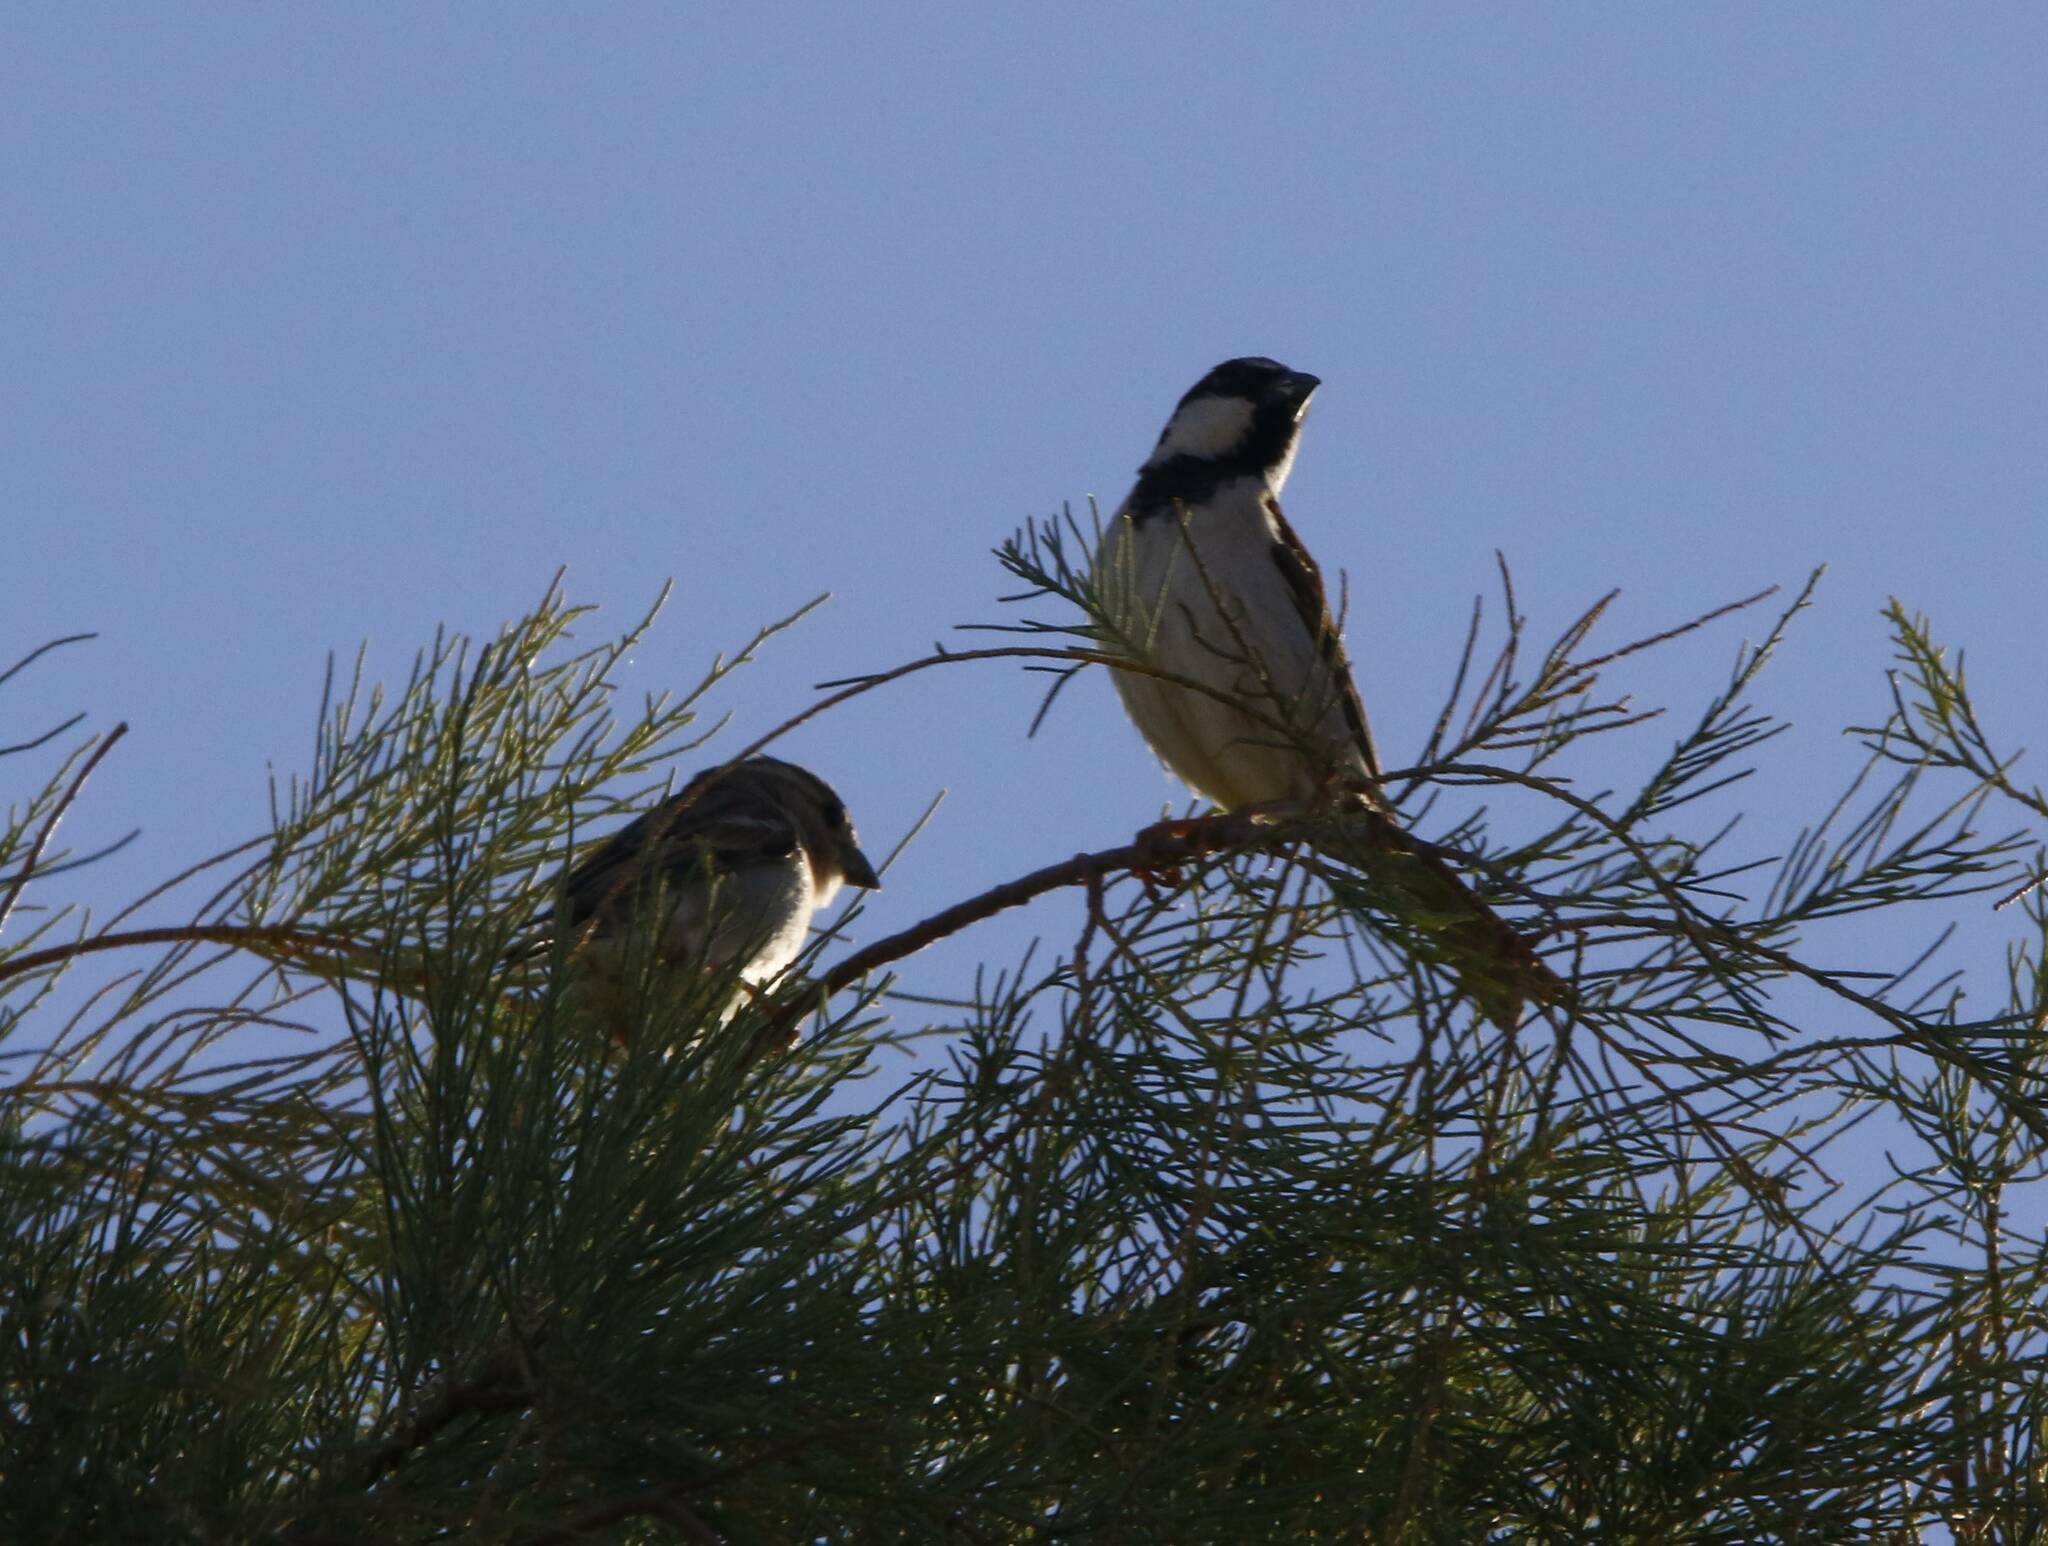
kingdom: Animalia
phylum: Chordata
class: Aves
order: Passeriformes
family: Passeridae
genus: Passer
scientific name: Passer domesticus
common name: House sparrow
